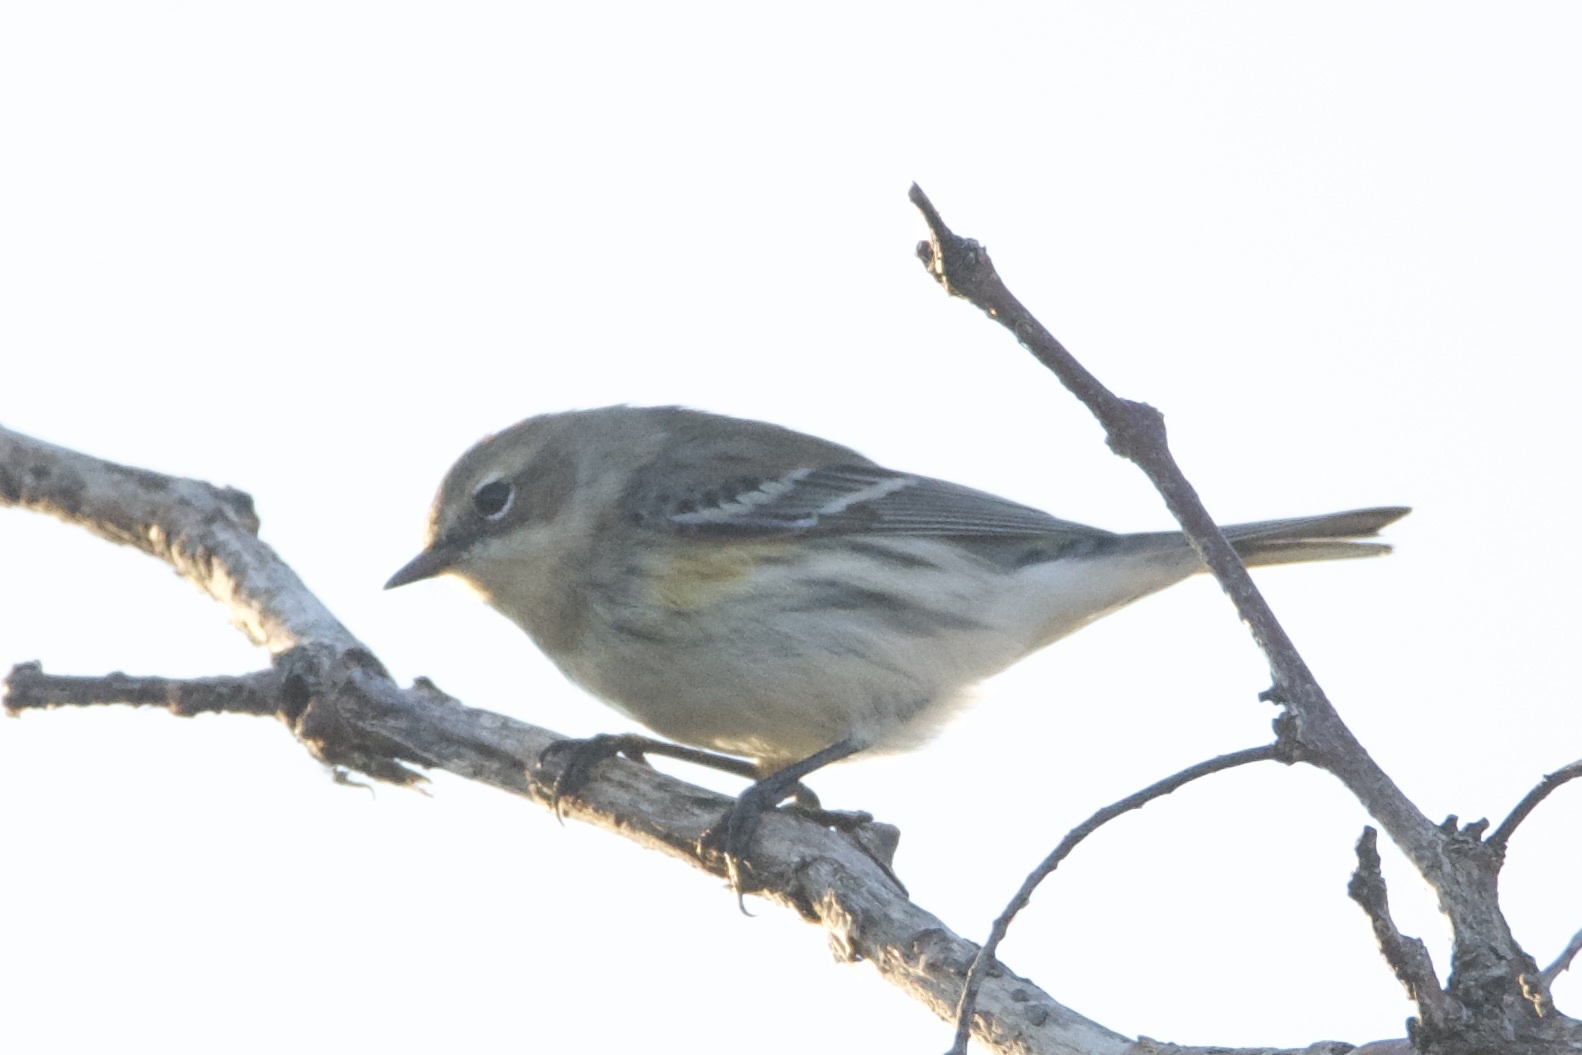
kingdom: Animalia
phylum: Chordata
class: Aves
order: Passeriformes
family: Parulidae
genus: Setophaga
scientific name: Setophaga coronata
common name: Myrtle warbler
